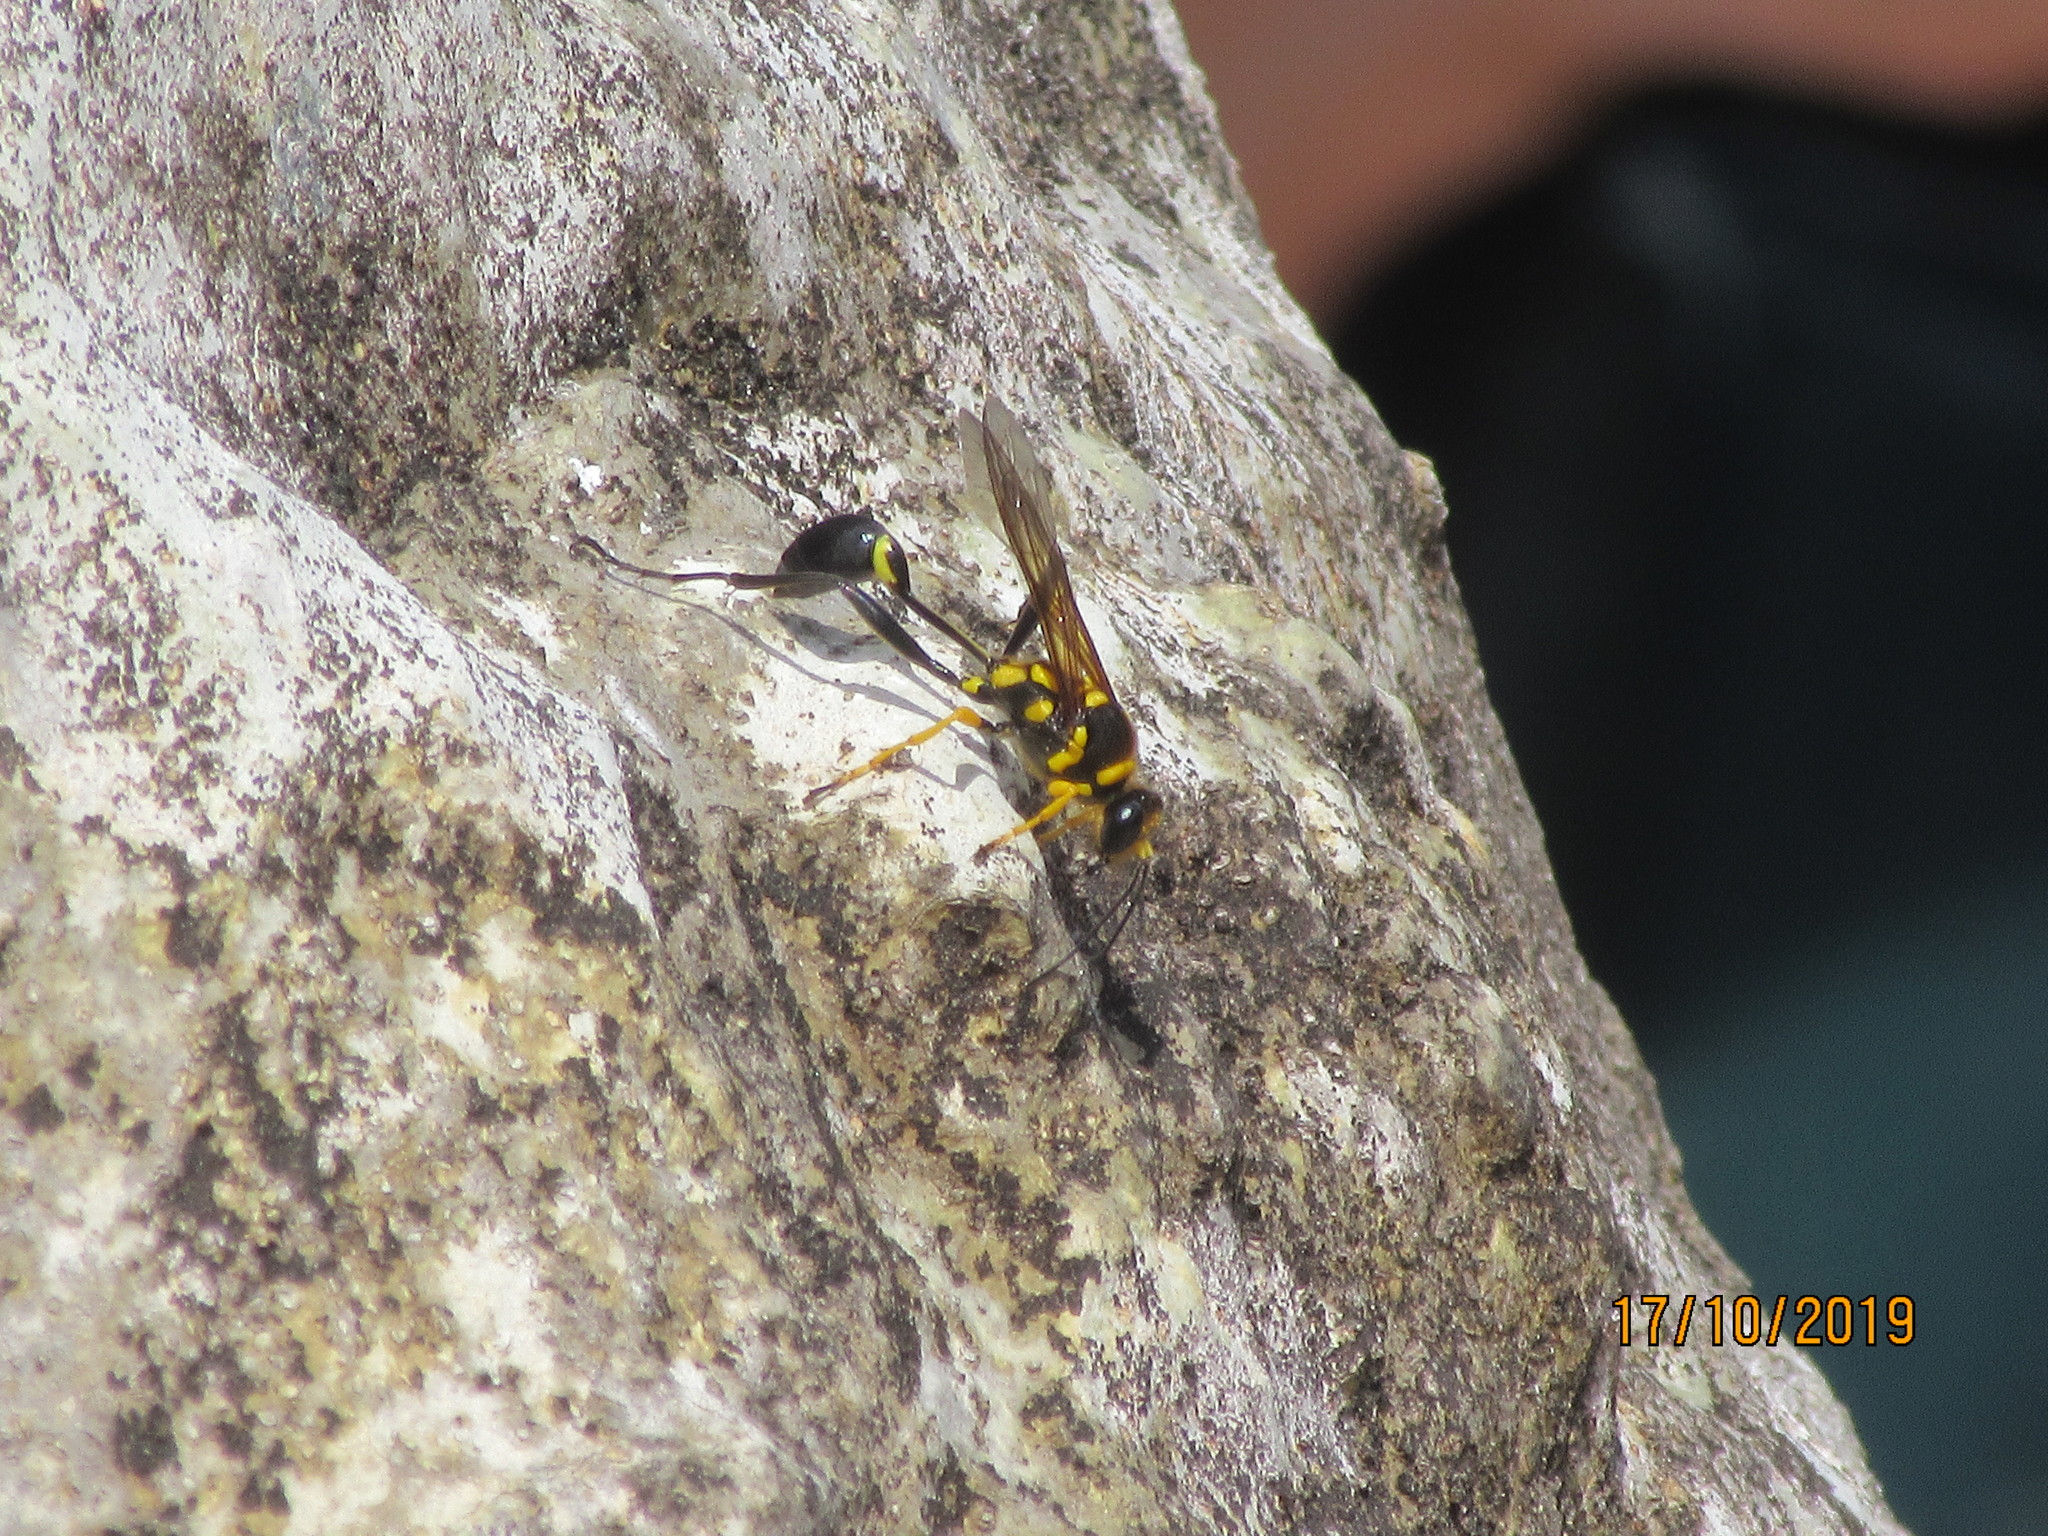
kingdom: Animalia
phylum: Arthropoda
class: Insecta
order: Hymenoptera
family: Sphecidae
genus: Sceliphron
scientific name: Sceliphron fistularium
